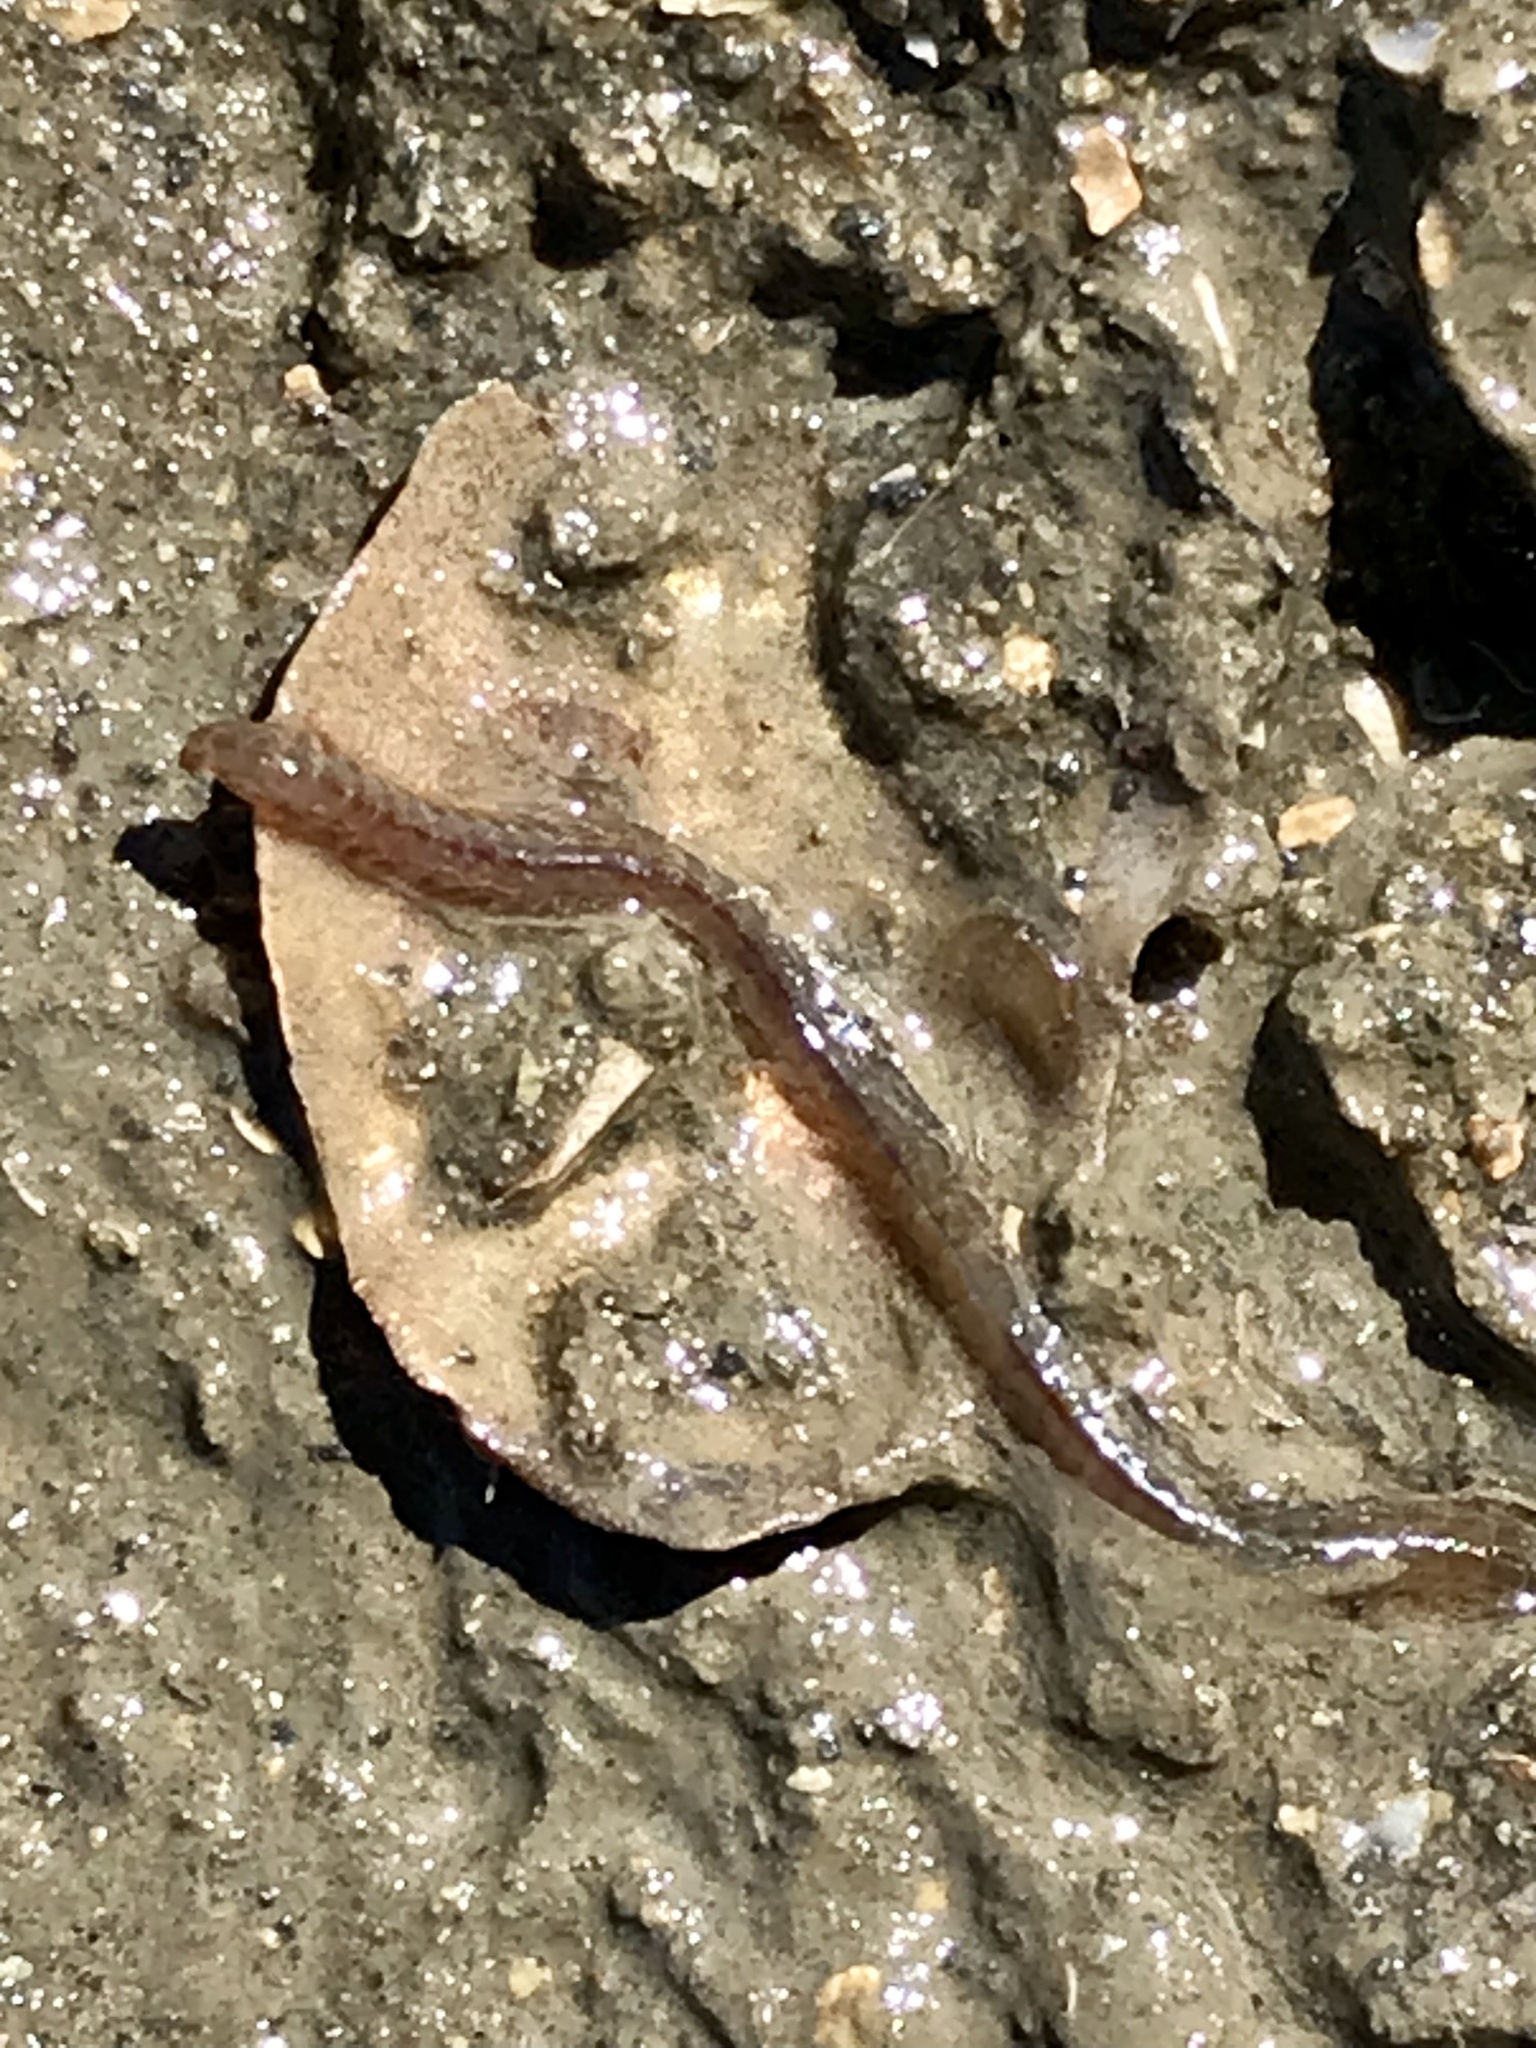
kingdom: Animalia
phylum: Annelida
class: Polychaeta
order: Phyllodocida
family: Nereididae
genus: Alitta
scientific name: Alitta succinea
